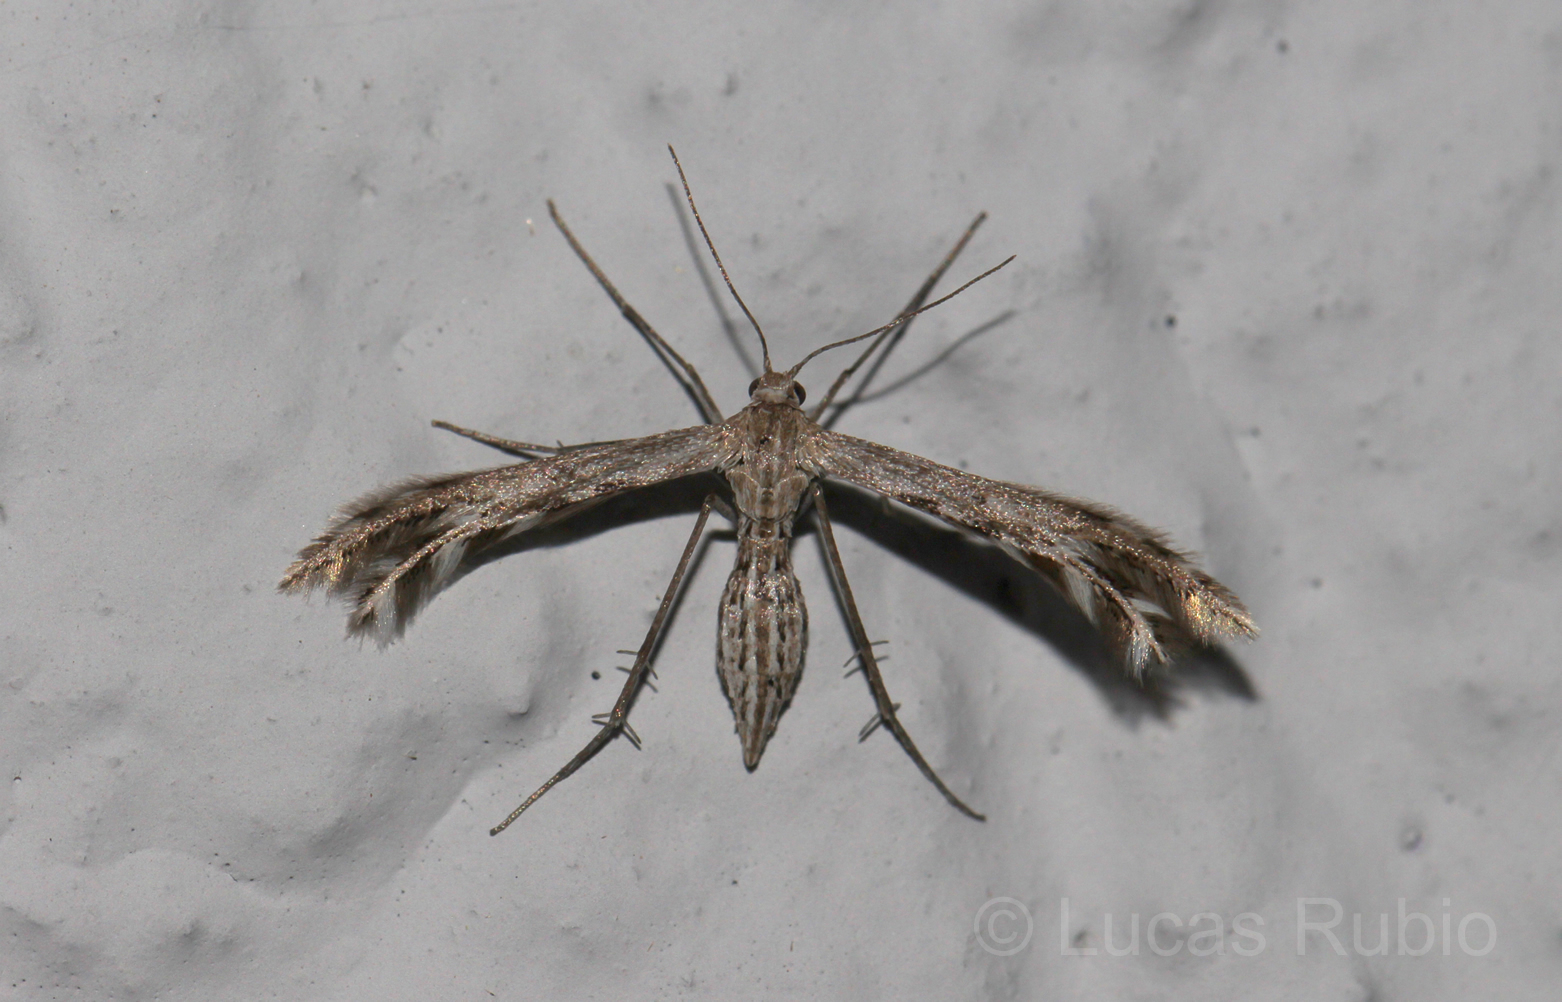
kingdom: Animalia
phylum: Arthropoda
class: Insecta
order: Lepidoptera
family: Pterophoridae
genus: Singularia
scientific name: Singularia alternaria
